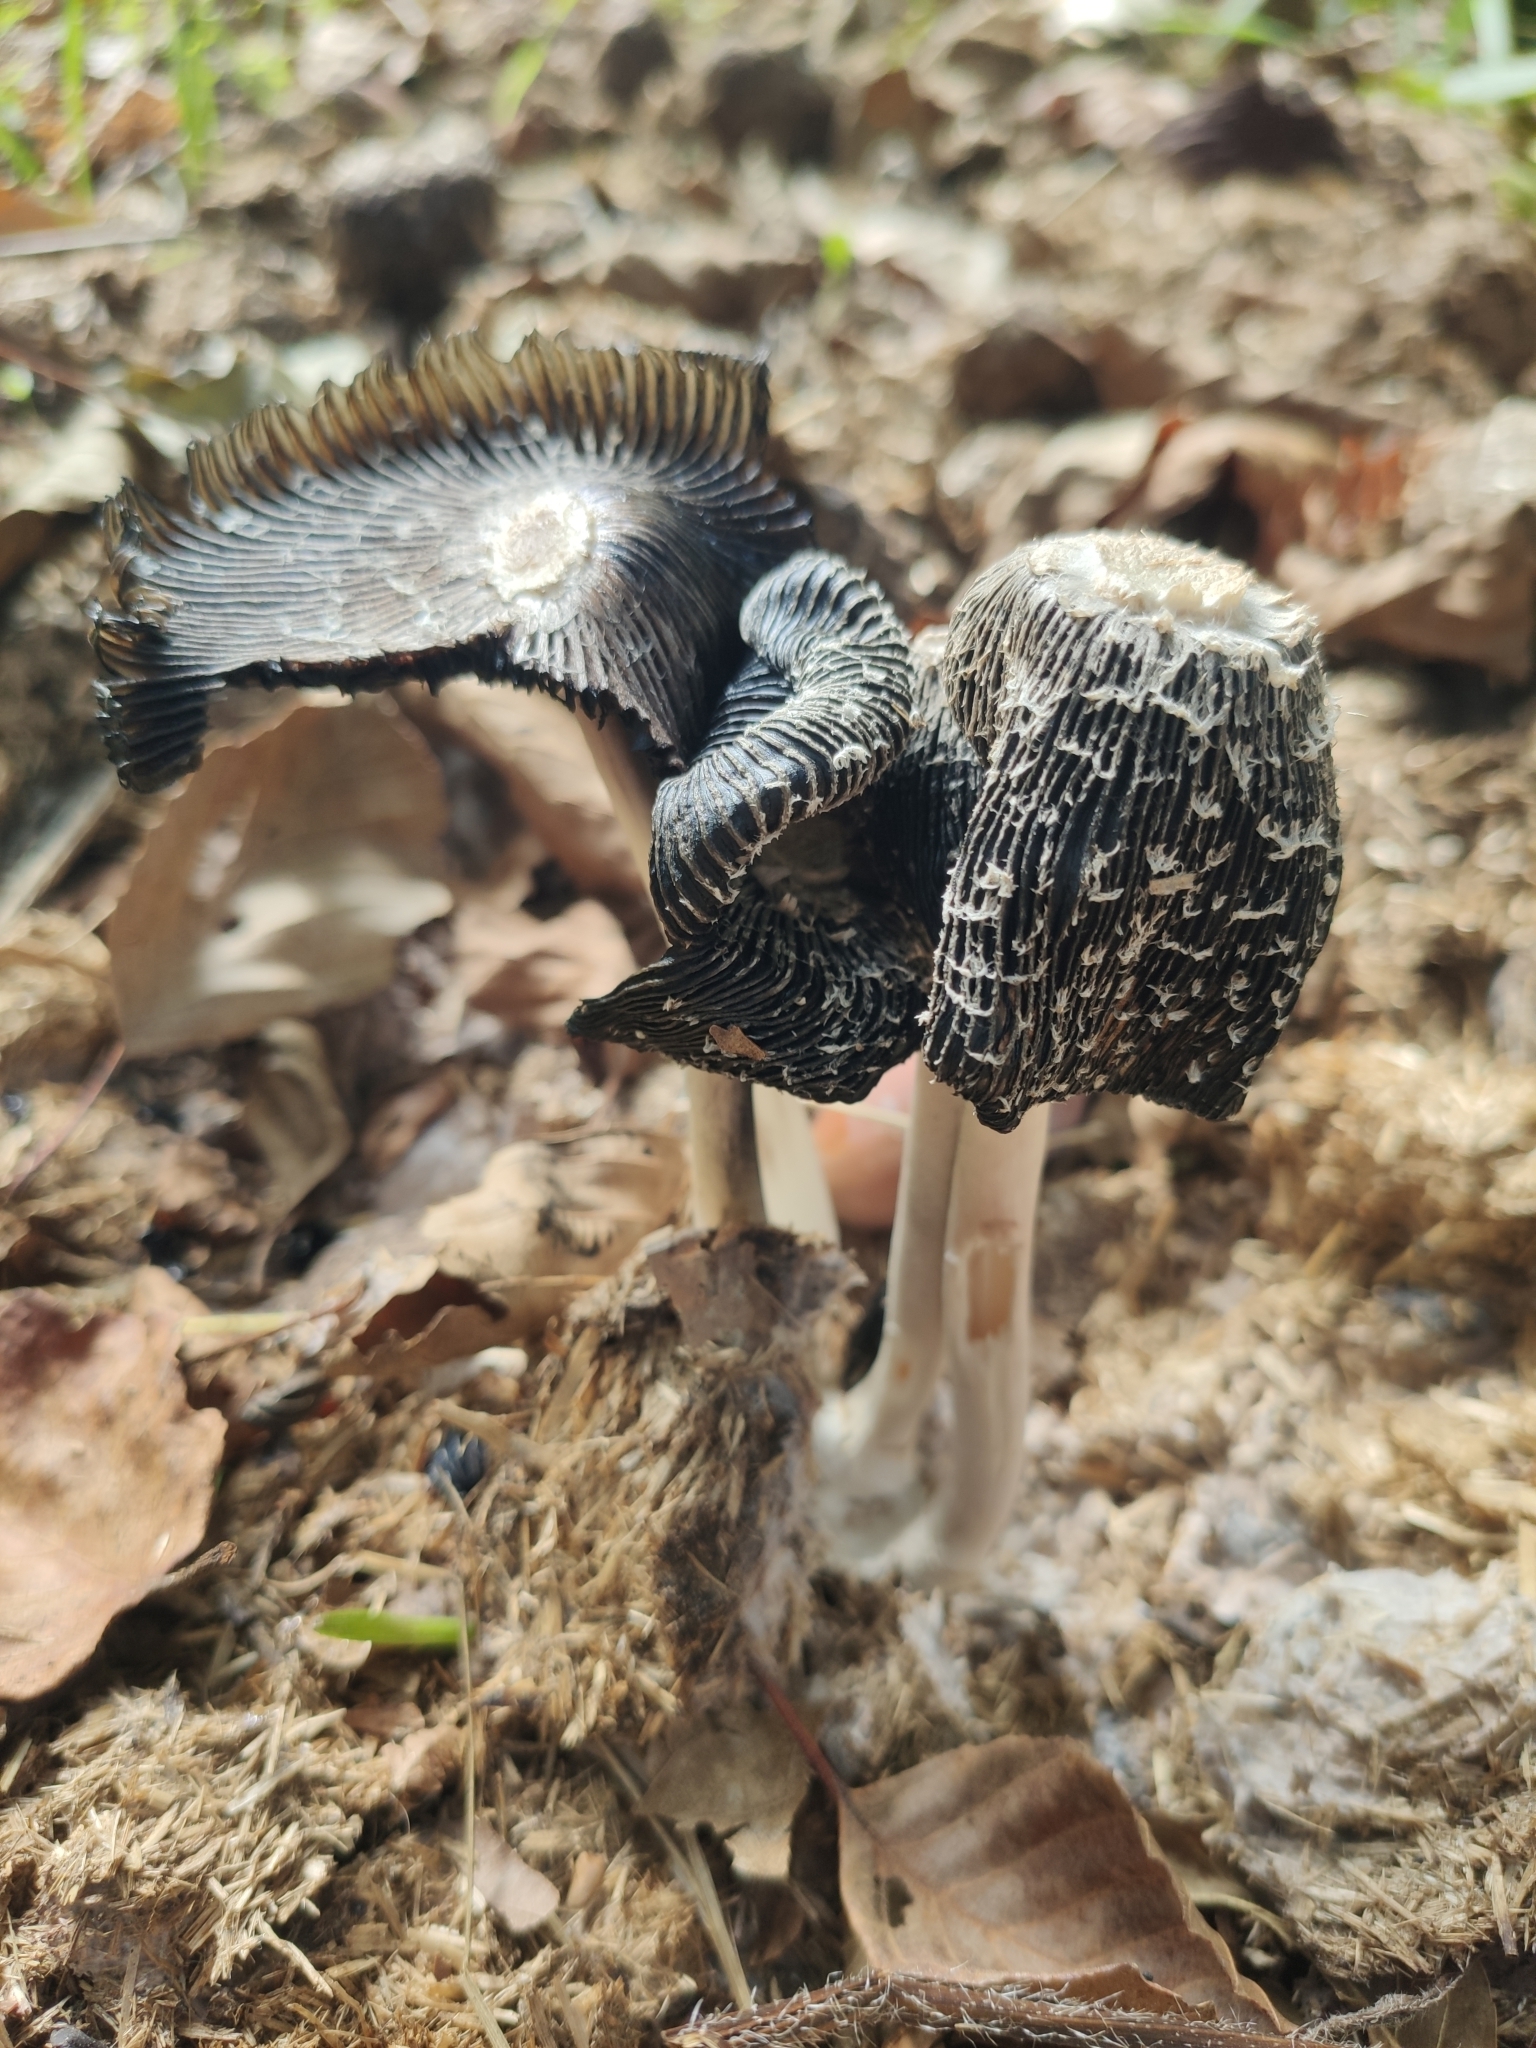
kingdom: Fungi
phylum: Basidiomycota
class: Agaricomycetes
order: Agaricales
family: Agaricaceae
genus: Coprinus
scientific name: Coprinus spadiceisporus
